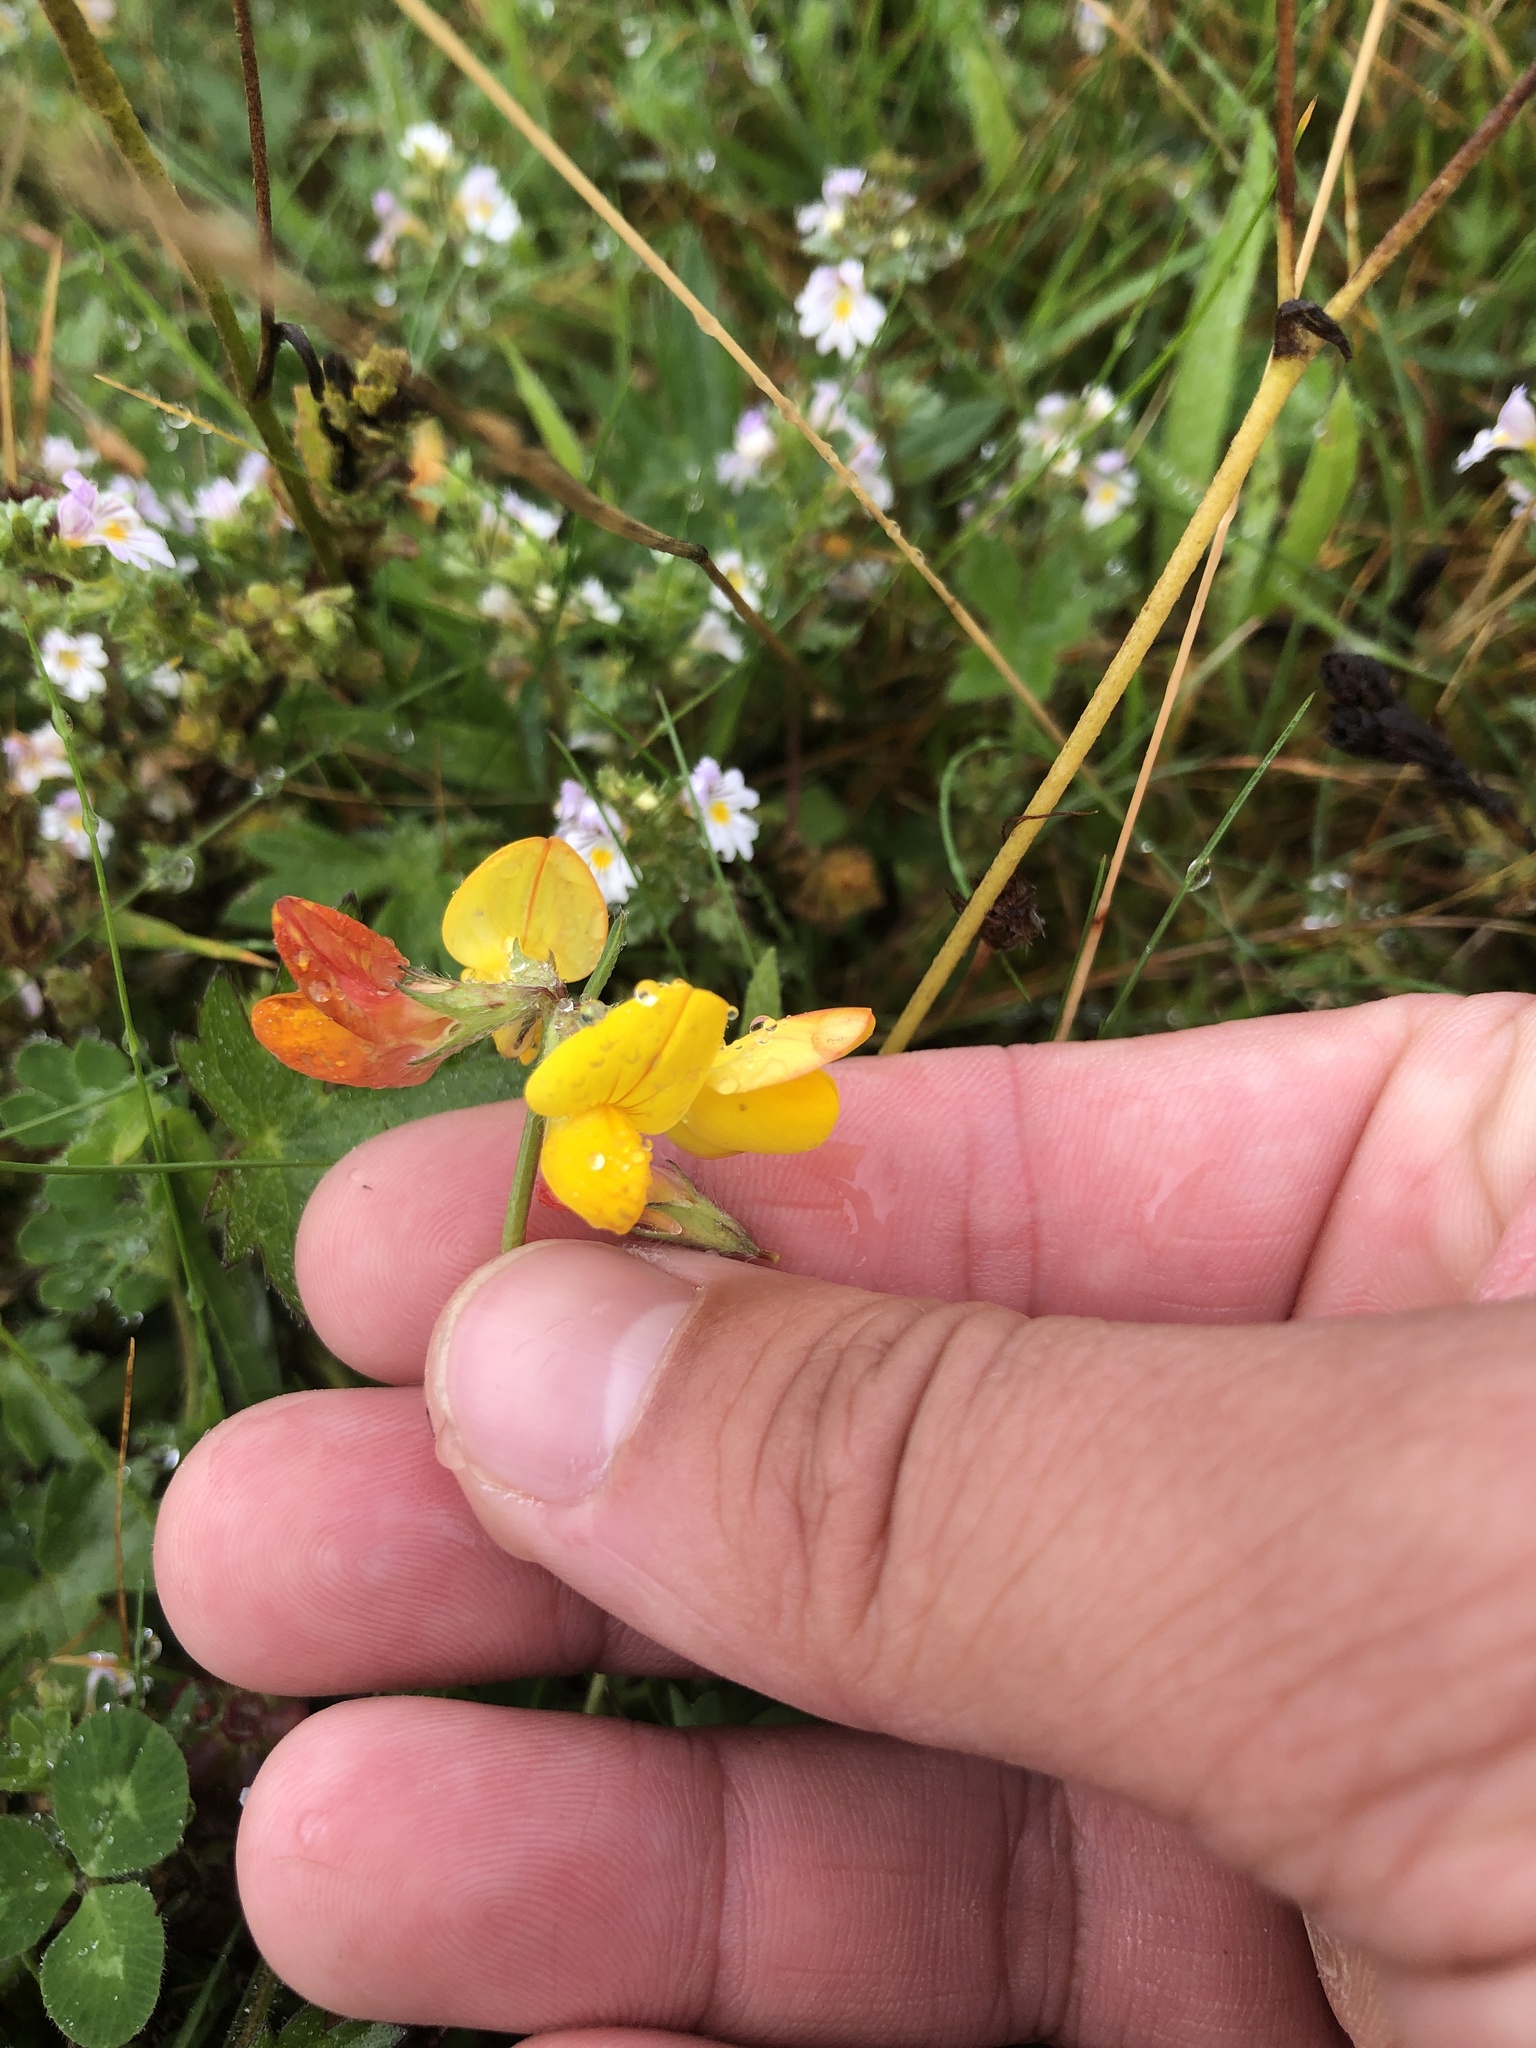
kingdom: Plantae
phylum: Tracheophyta
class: Magnoliopsida
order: Fabales
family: Fabaceae
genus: Lotus
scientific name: Lotus corniculatus
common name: Common bird's-foot-trefoil
